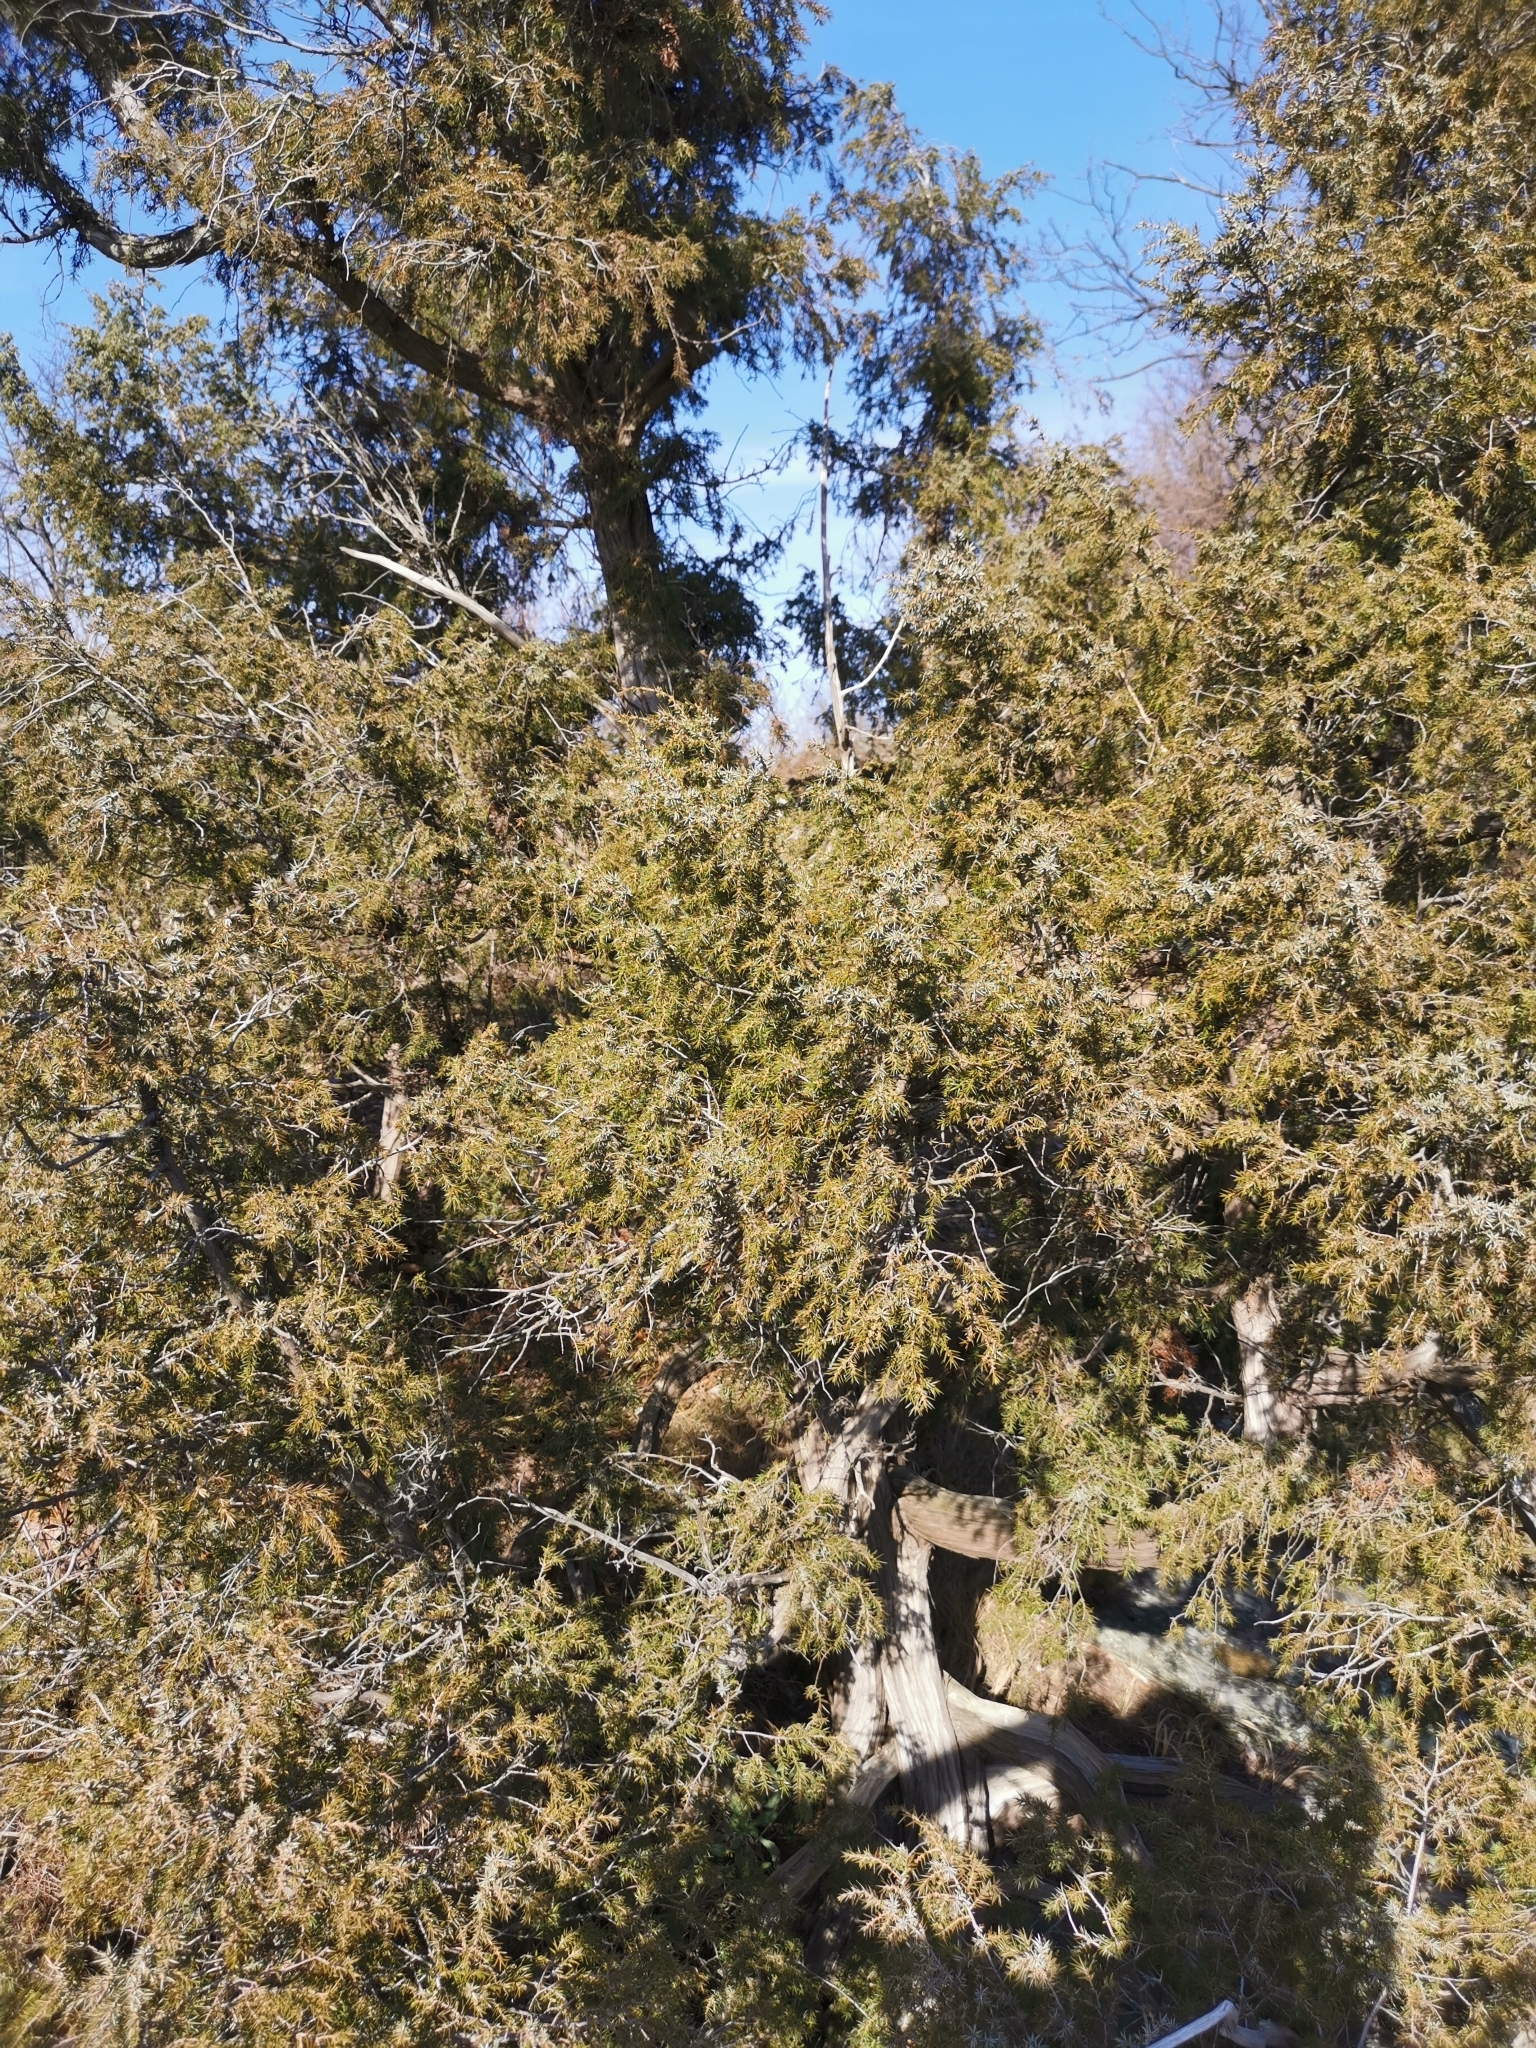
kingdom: Plantae
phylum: Tracheophyta
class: Pinopsida
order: Pinales
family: Cupressaceae
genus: Juniperus
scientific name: Juniperus communis
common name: Common juniper
